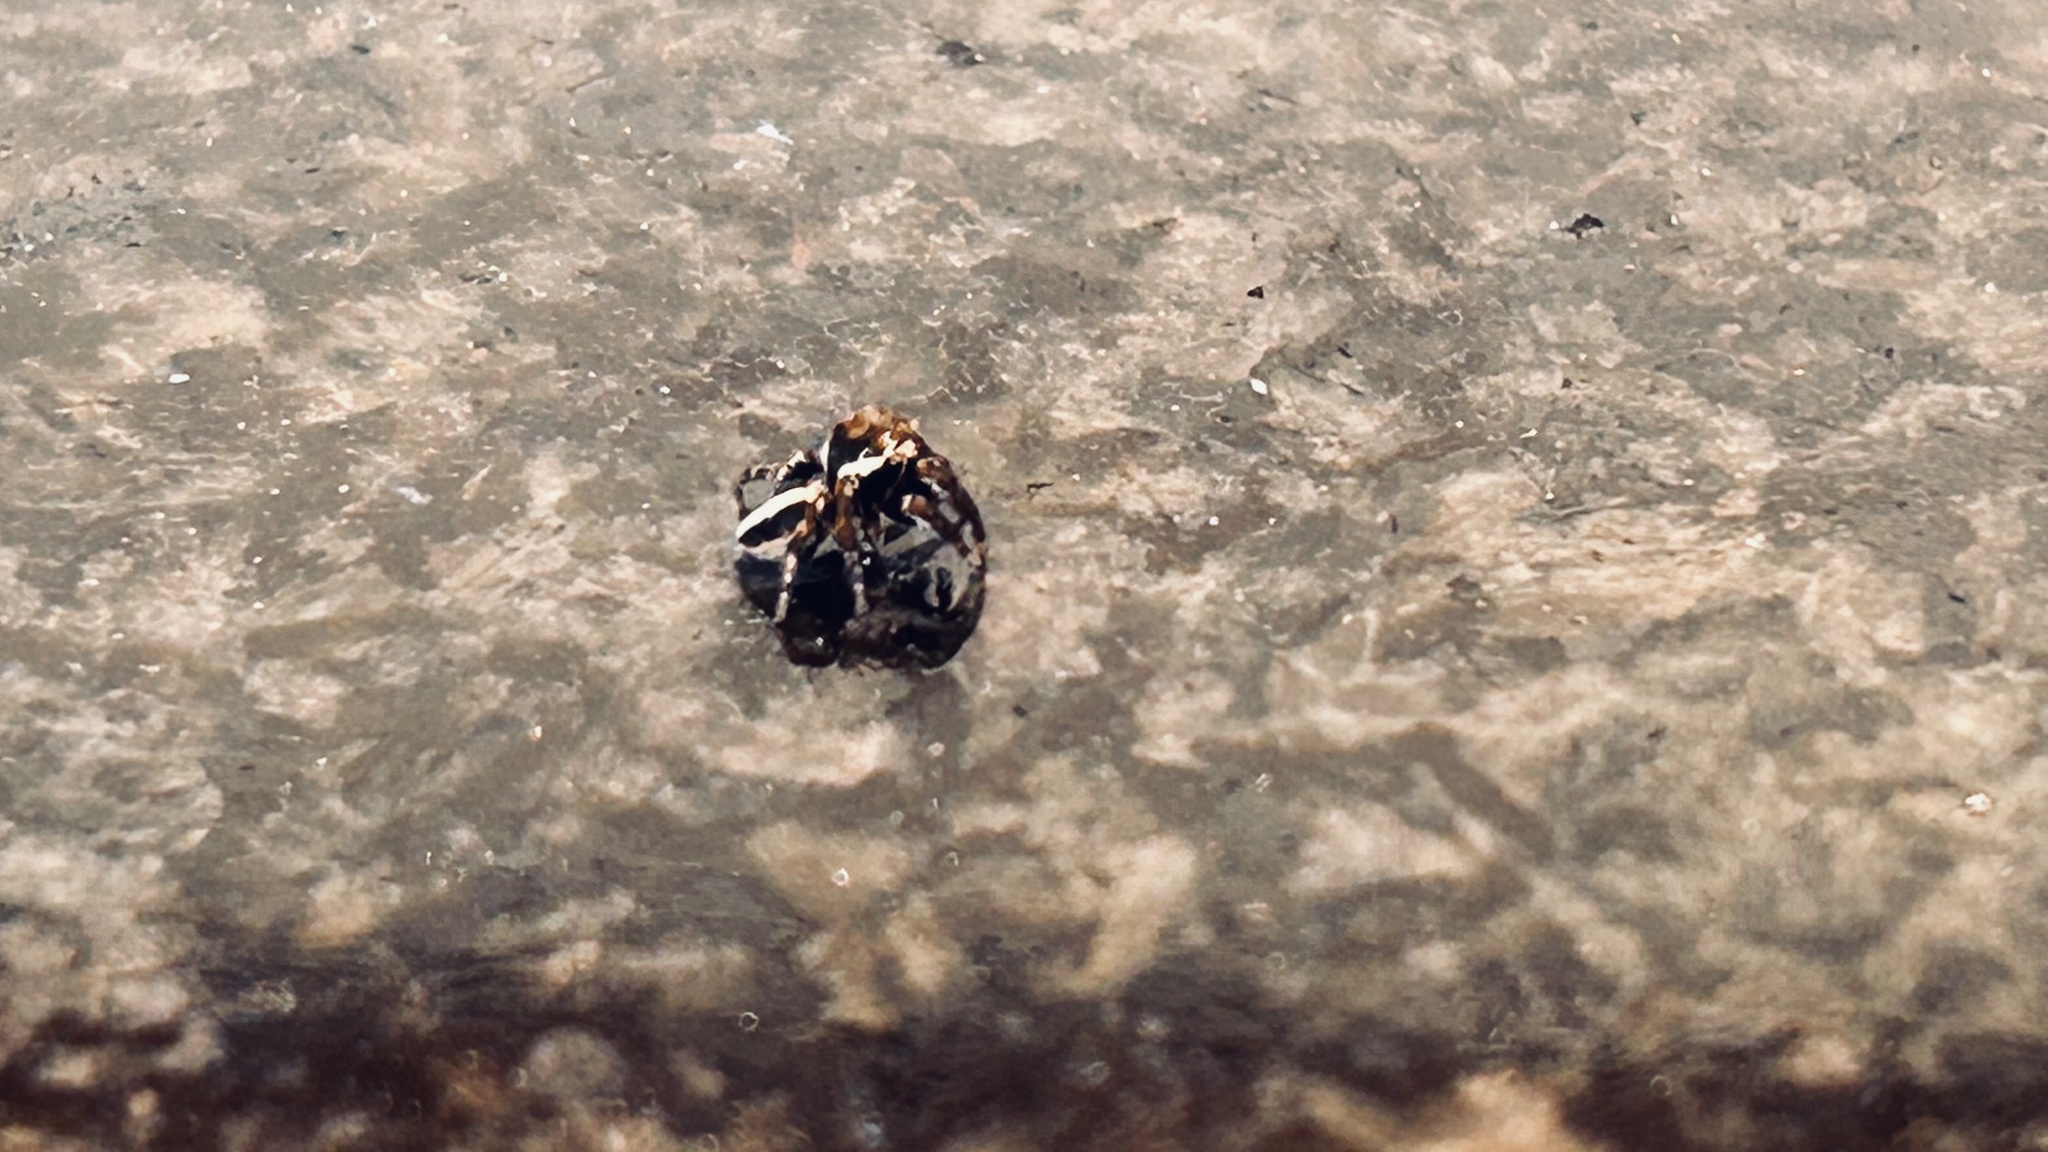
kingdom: Animalia
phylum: Arthropoda
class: Arachnida
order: Araneae
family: Salticidae
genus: Evarcha
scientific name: Evarcha denticulata
